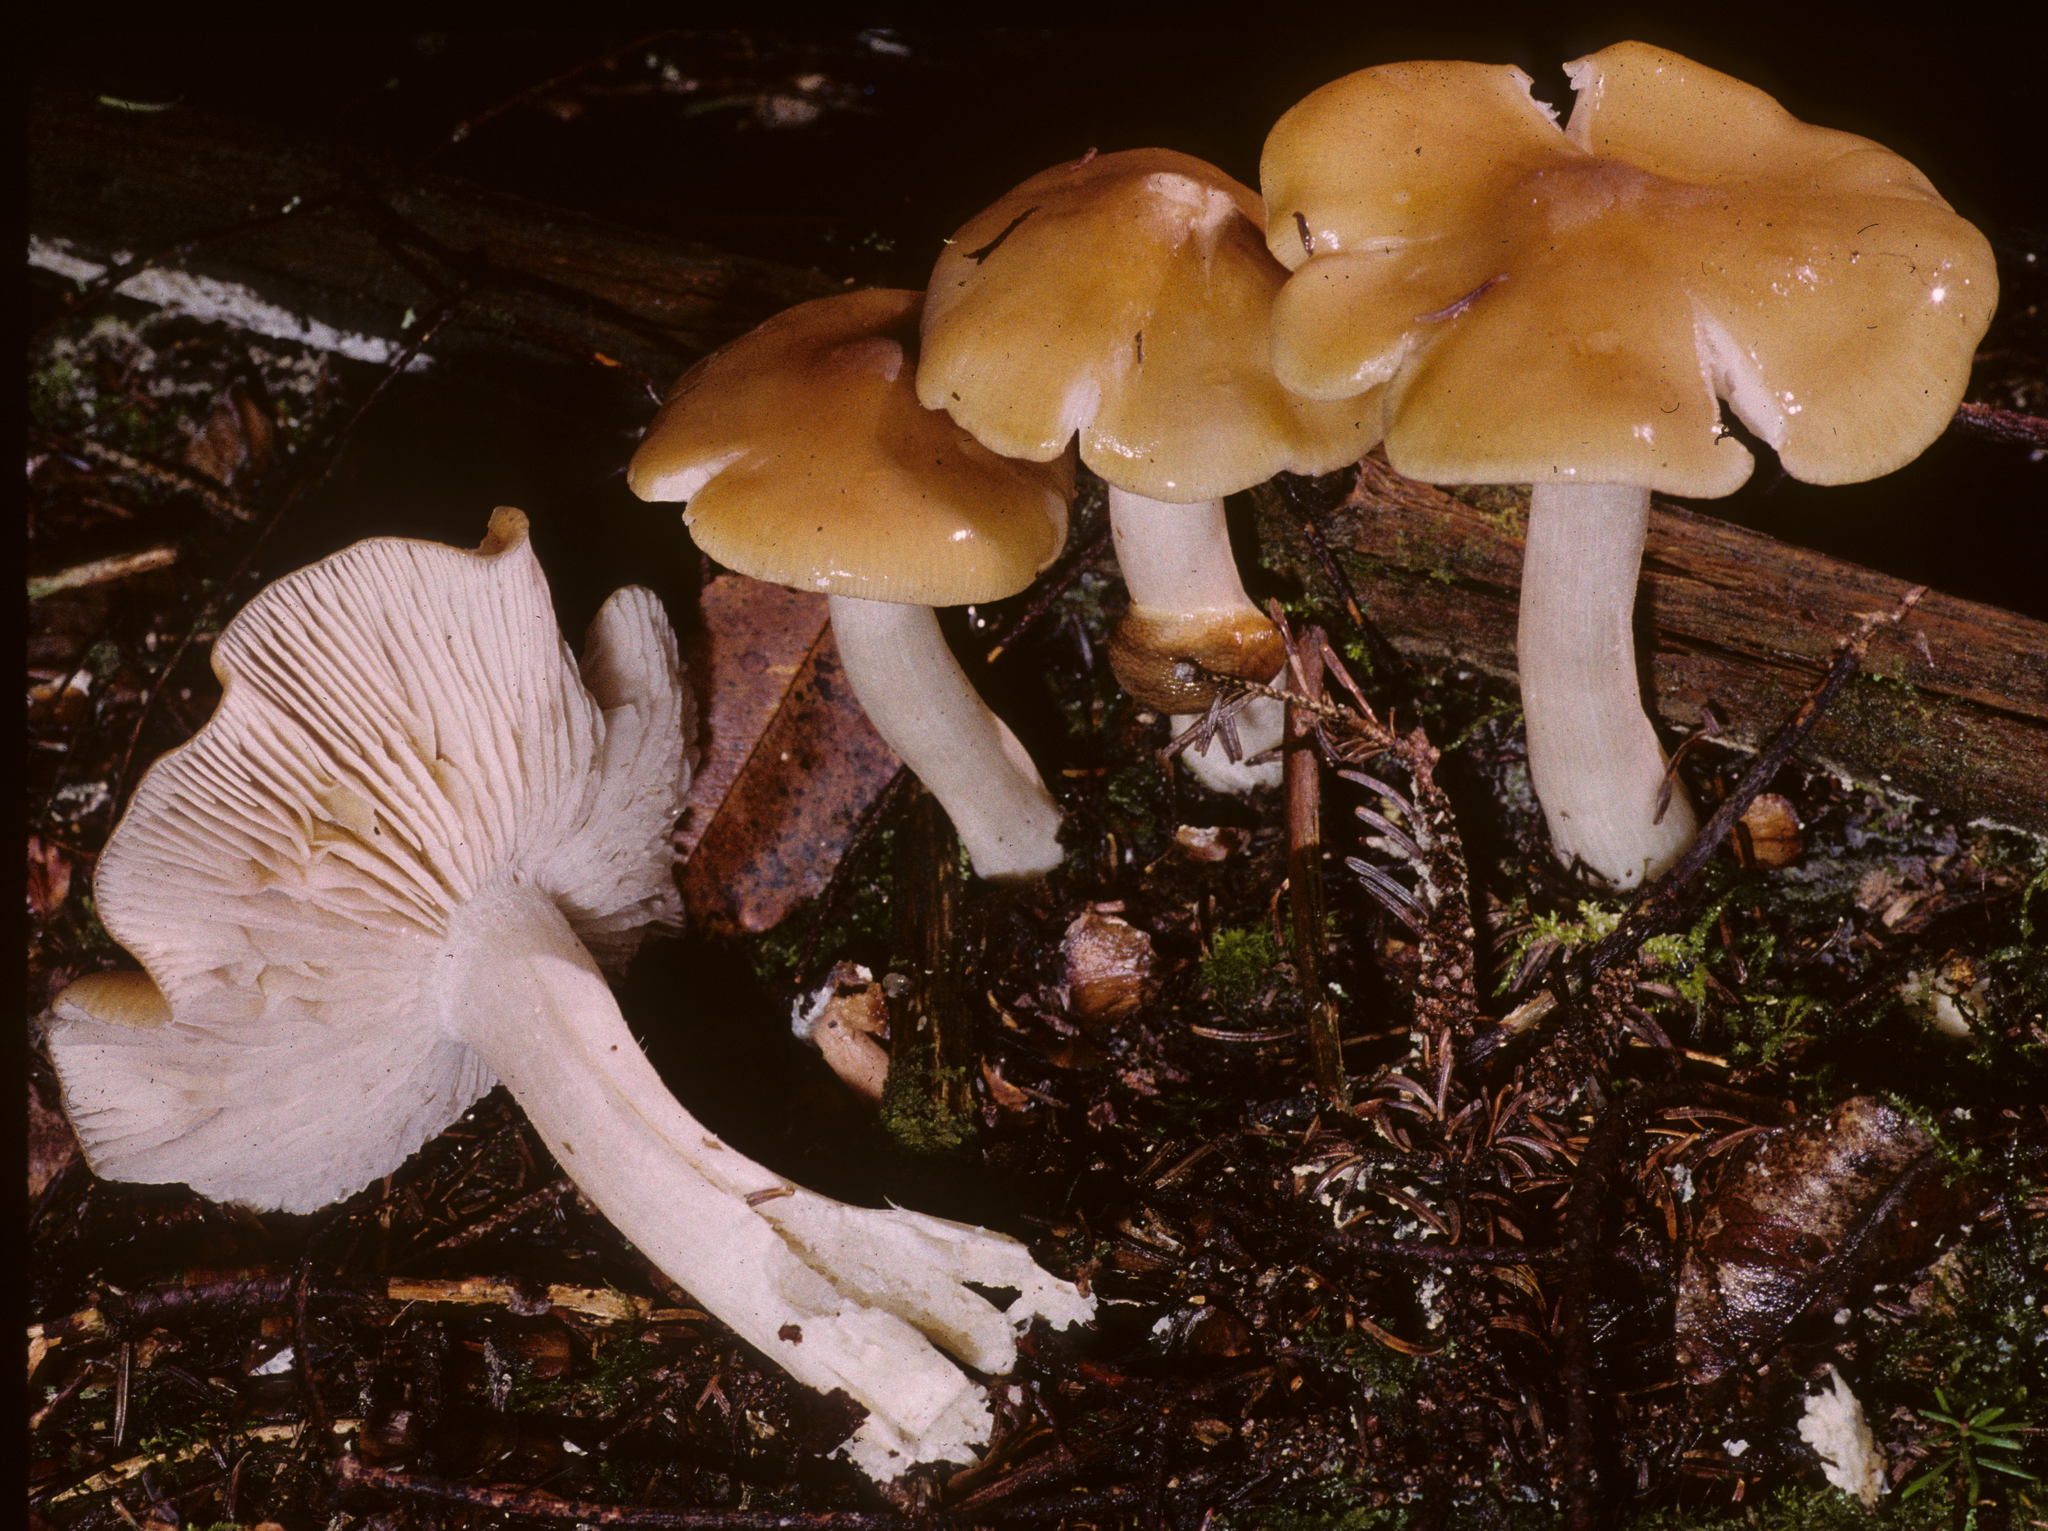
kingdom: Fungi
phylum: Basidiomycota
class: Agaricomycetes
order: Agaricales
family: Entolomataceae
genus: Entoloma
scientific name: Entoloma bicolor
